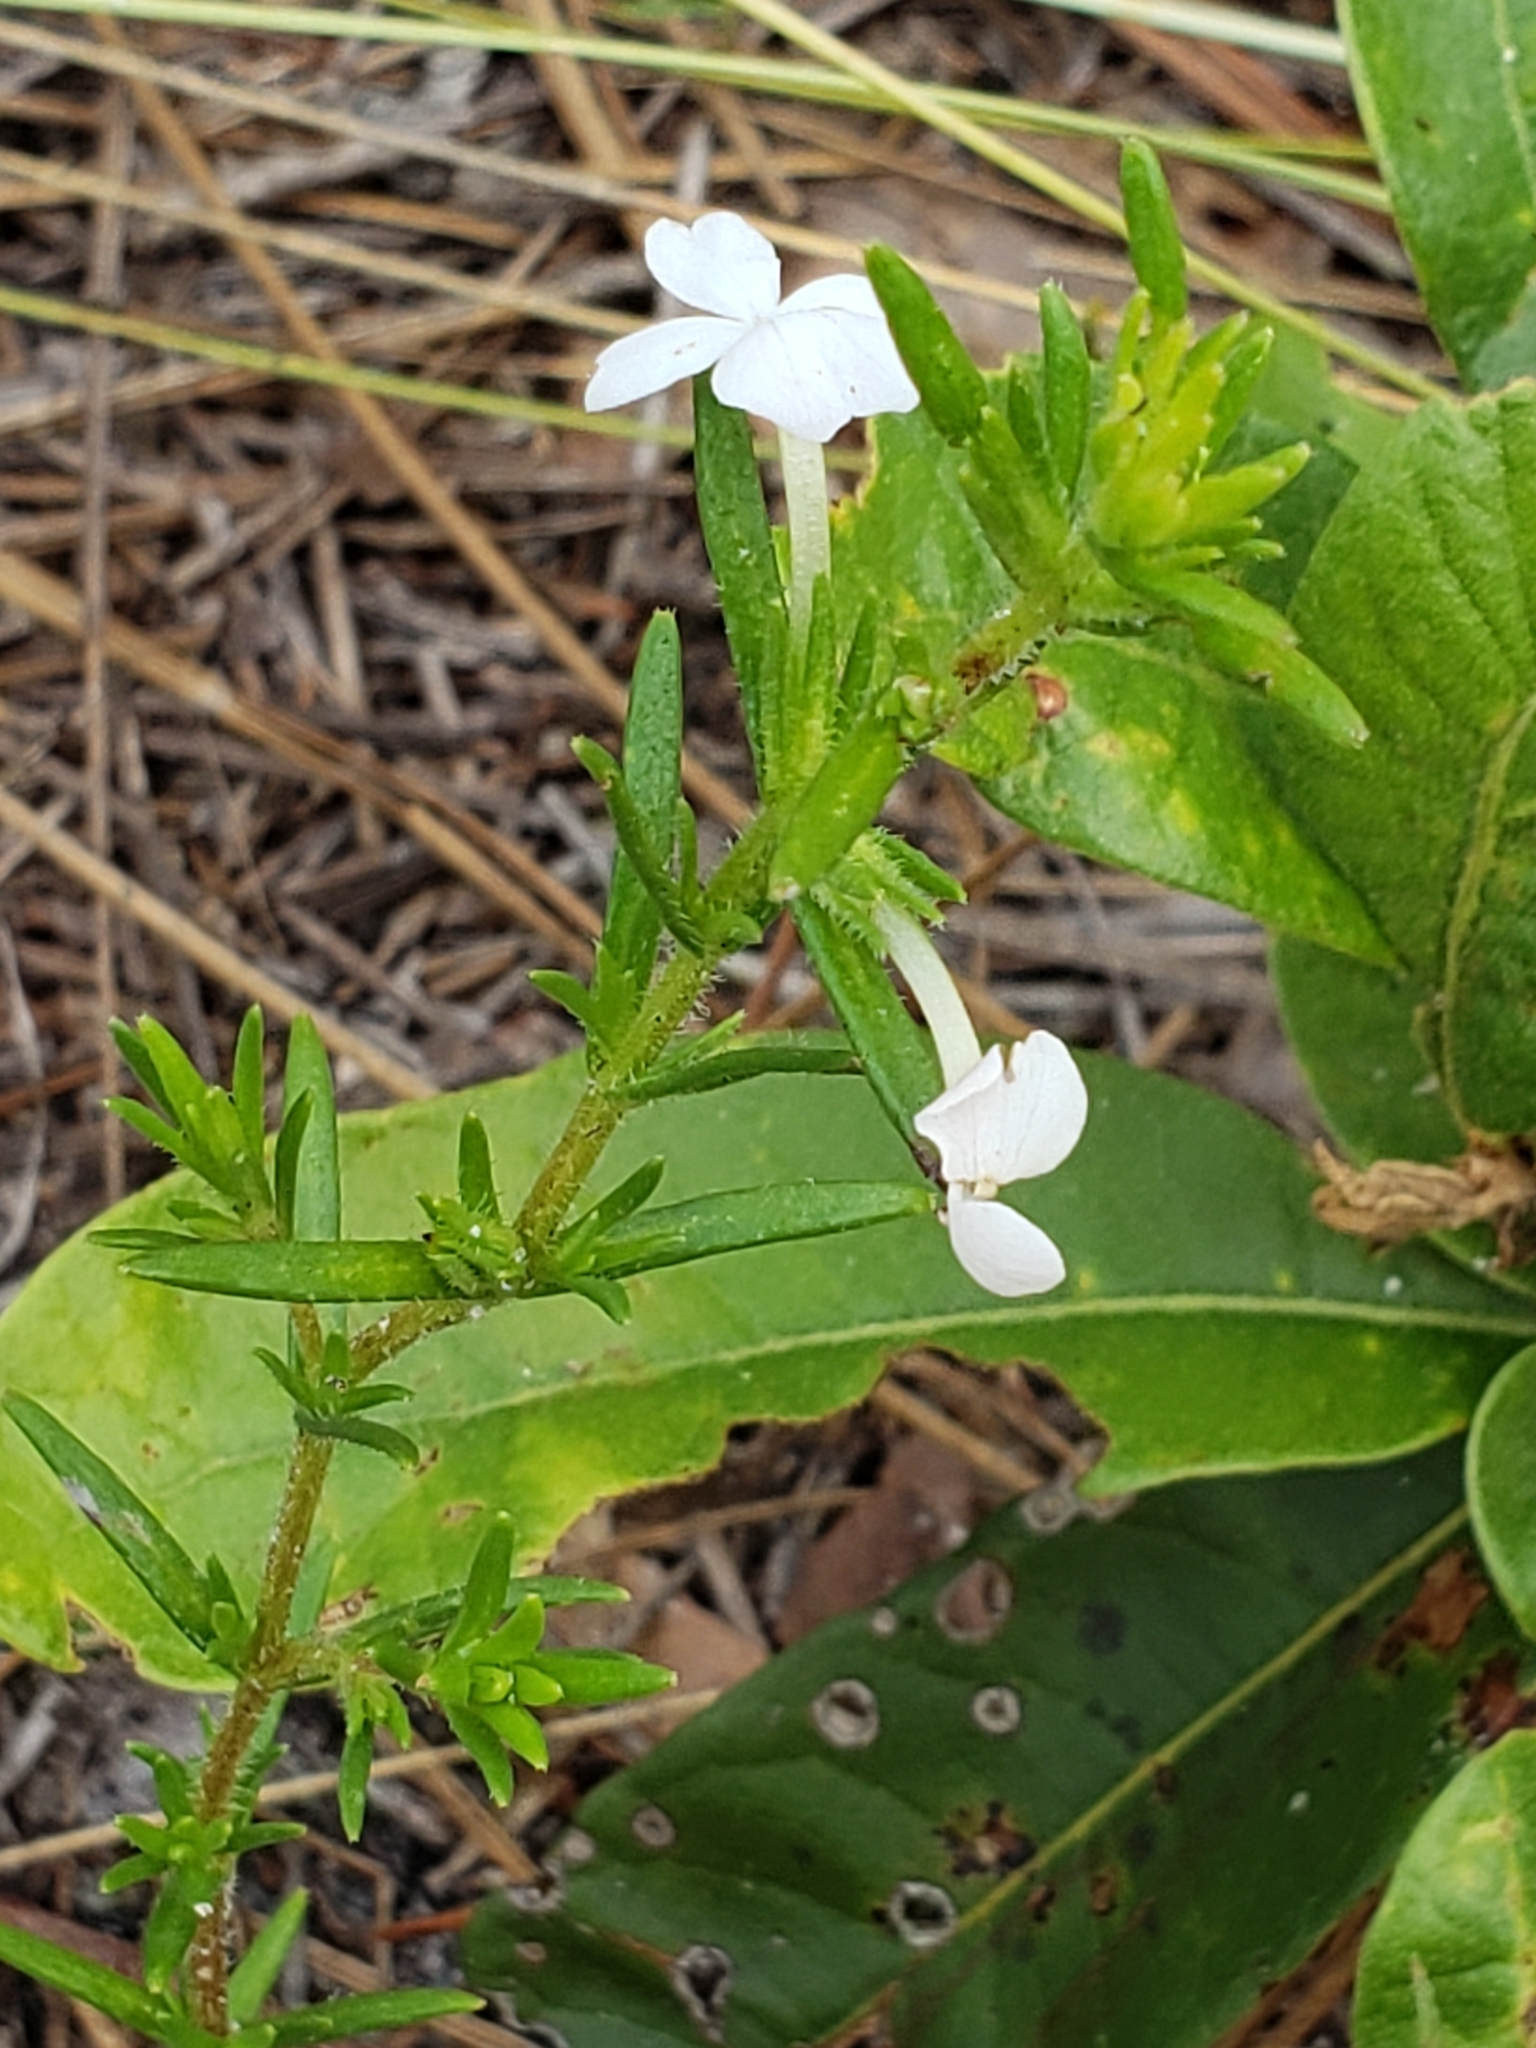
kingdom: Plantae
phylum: Tracheophyta
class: Magnoliopsida
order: Lamiales
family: Plantaginaceae
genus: Gratiola
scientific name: Gratiola hispida
